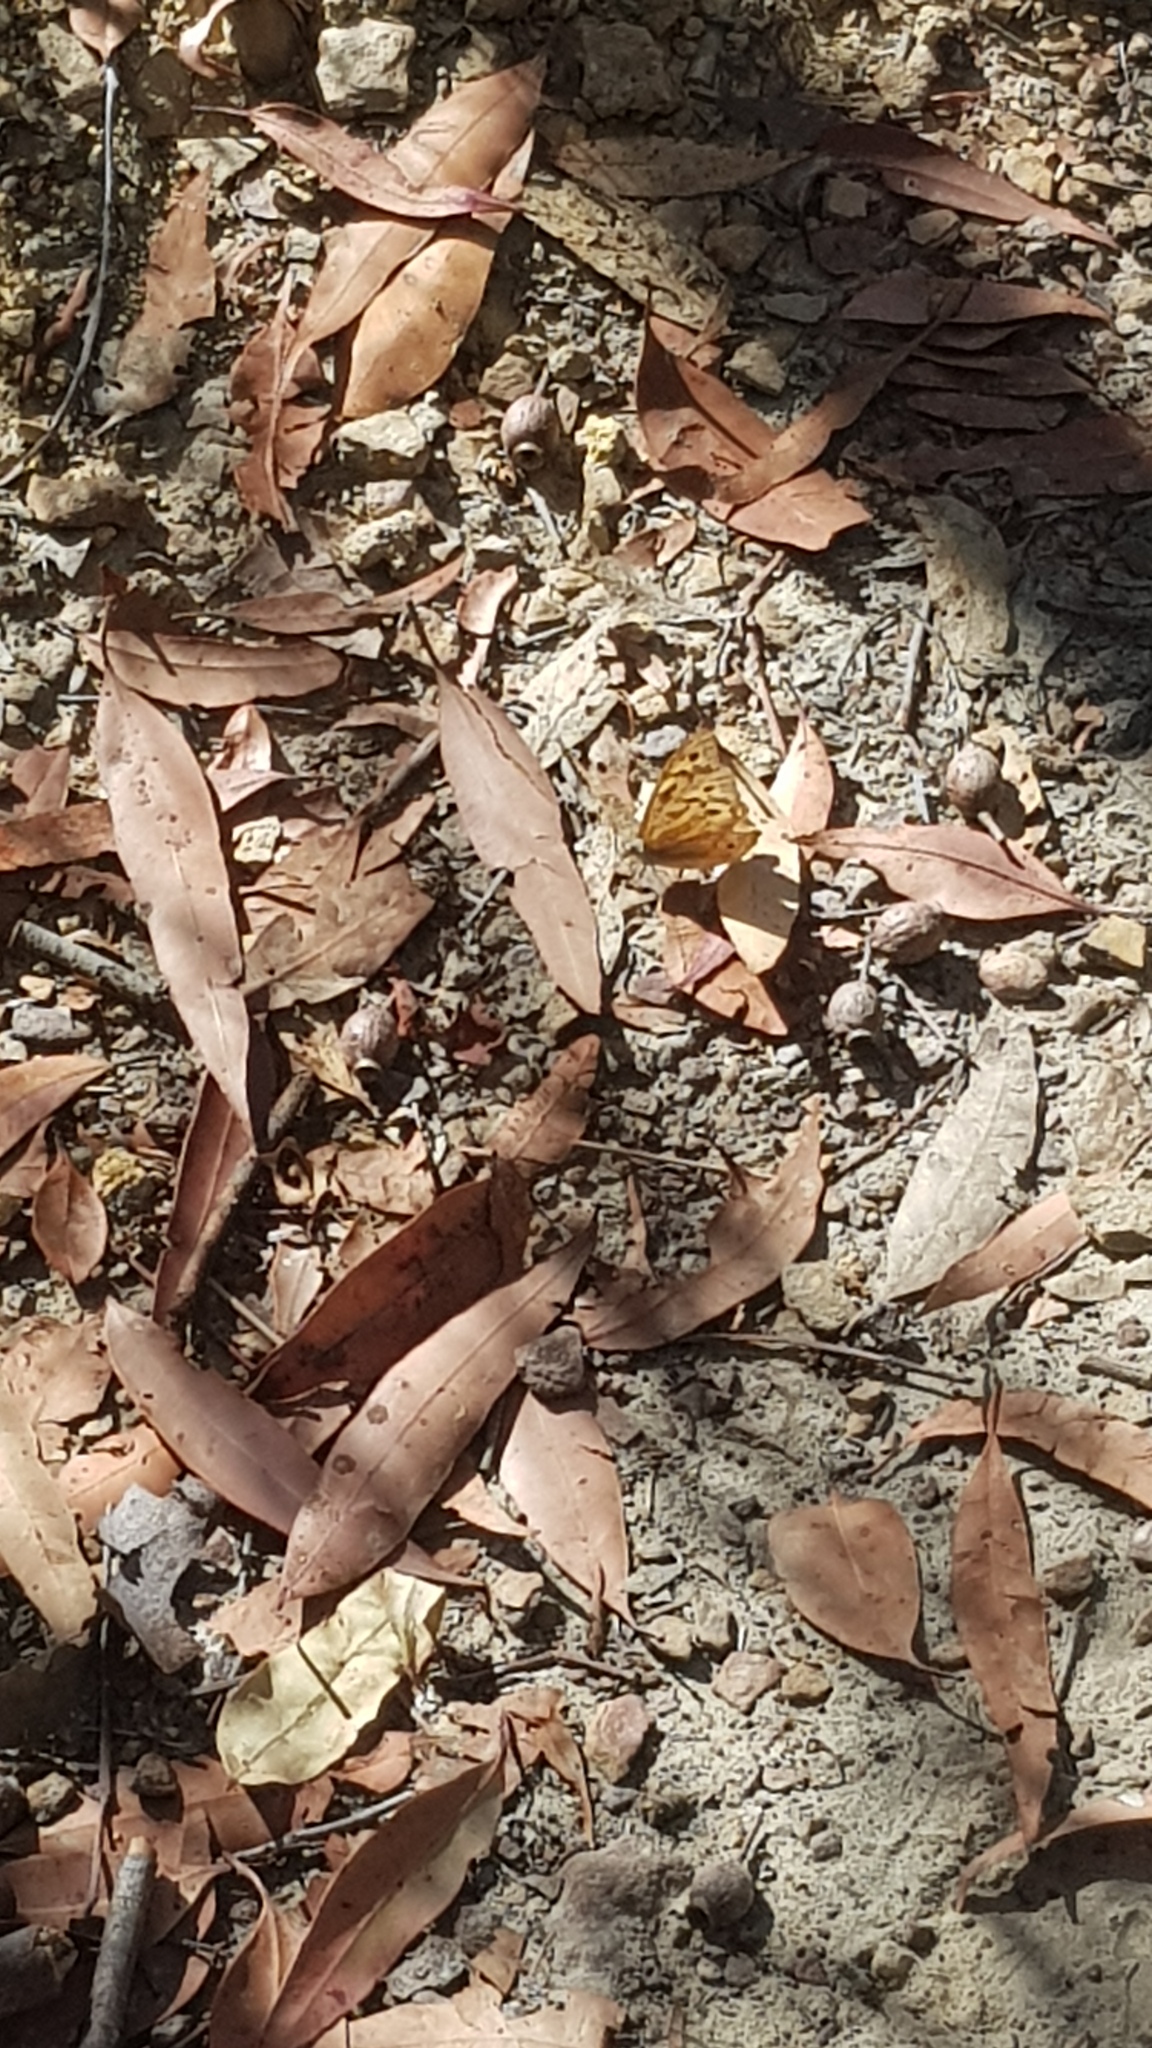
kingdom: Animalia
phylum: Arthropoda
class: Insecta
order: Lepidoptera
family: Nymphalidae
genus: Heteronympha
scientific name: Heteronympha merope
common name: Common brown
